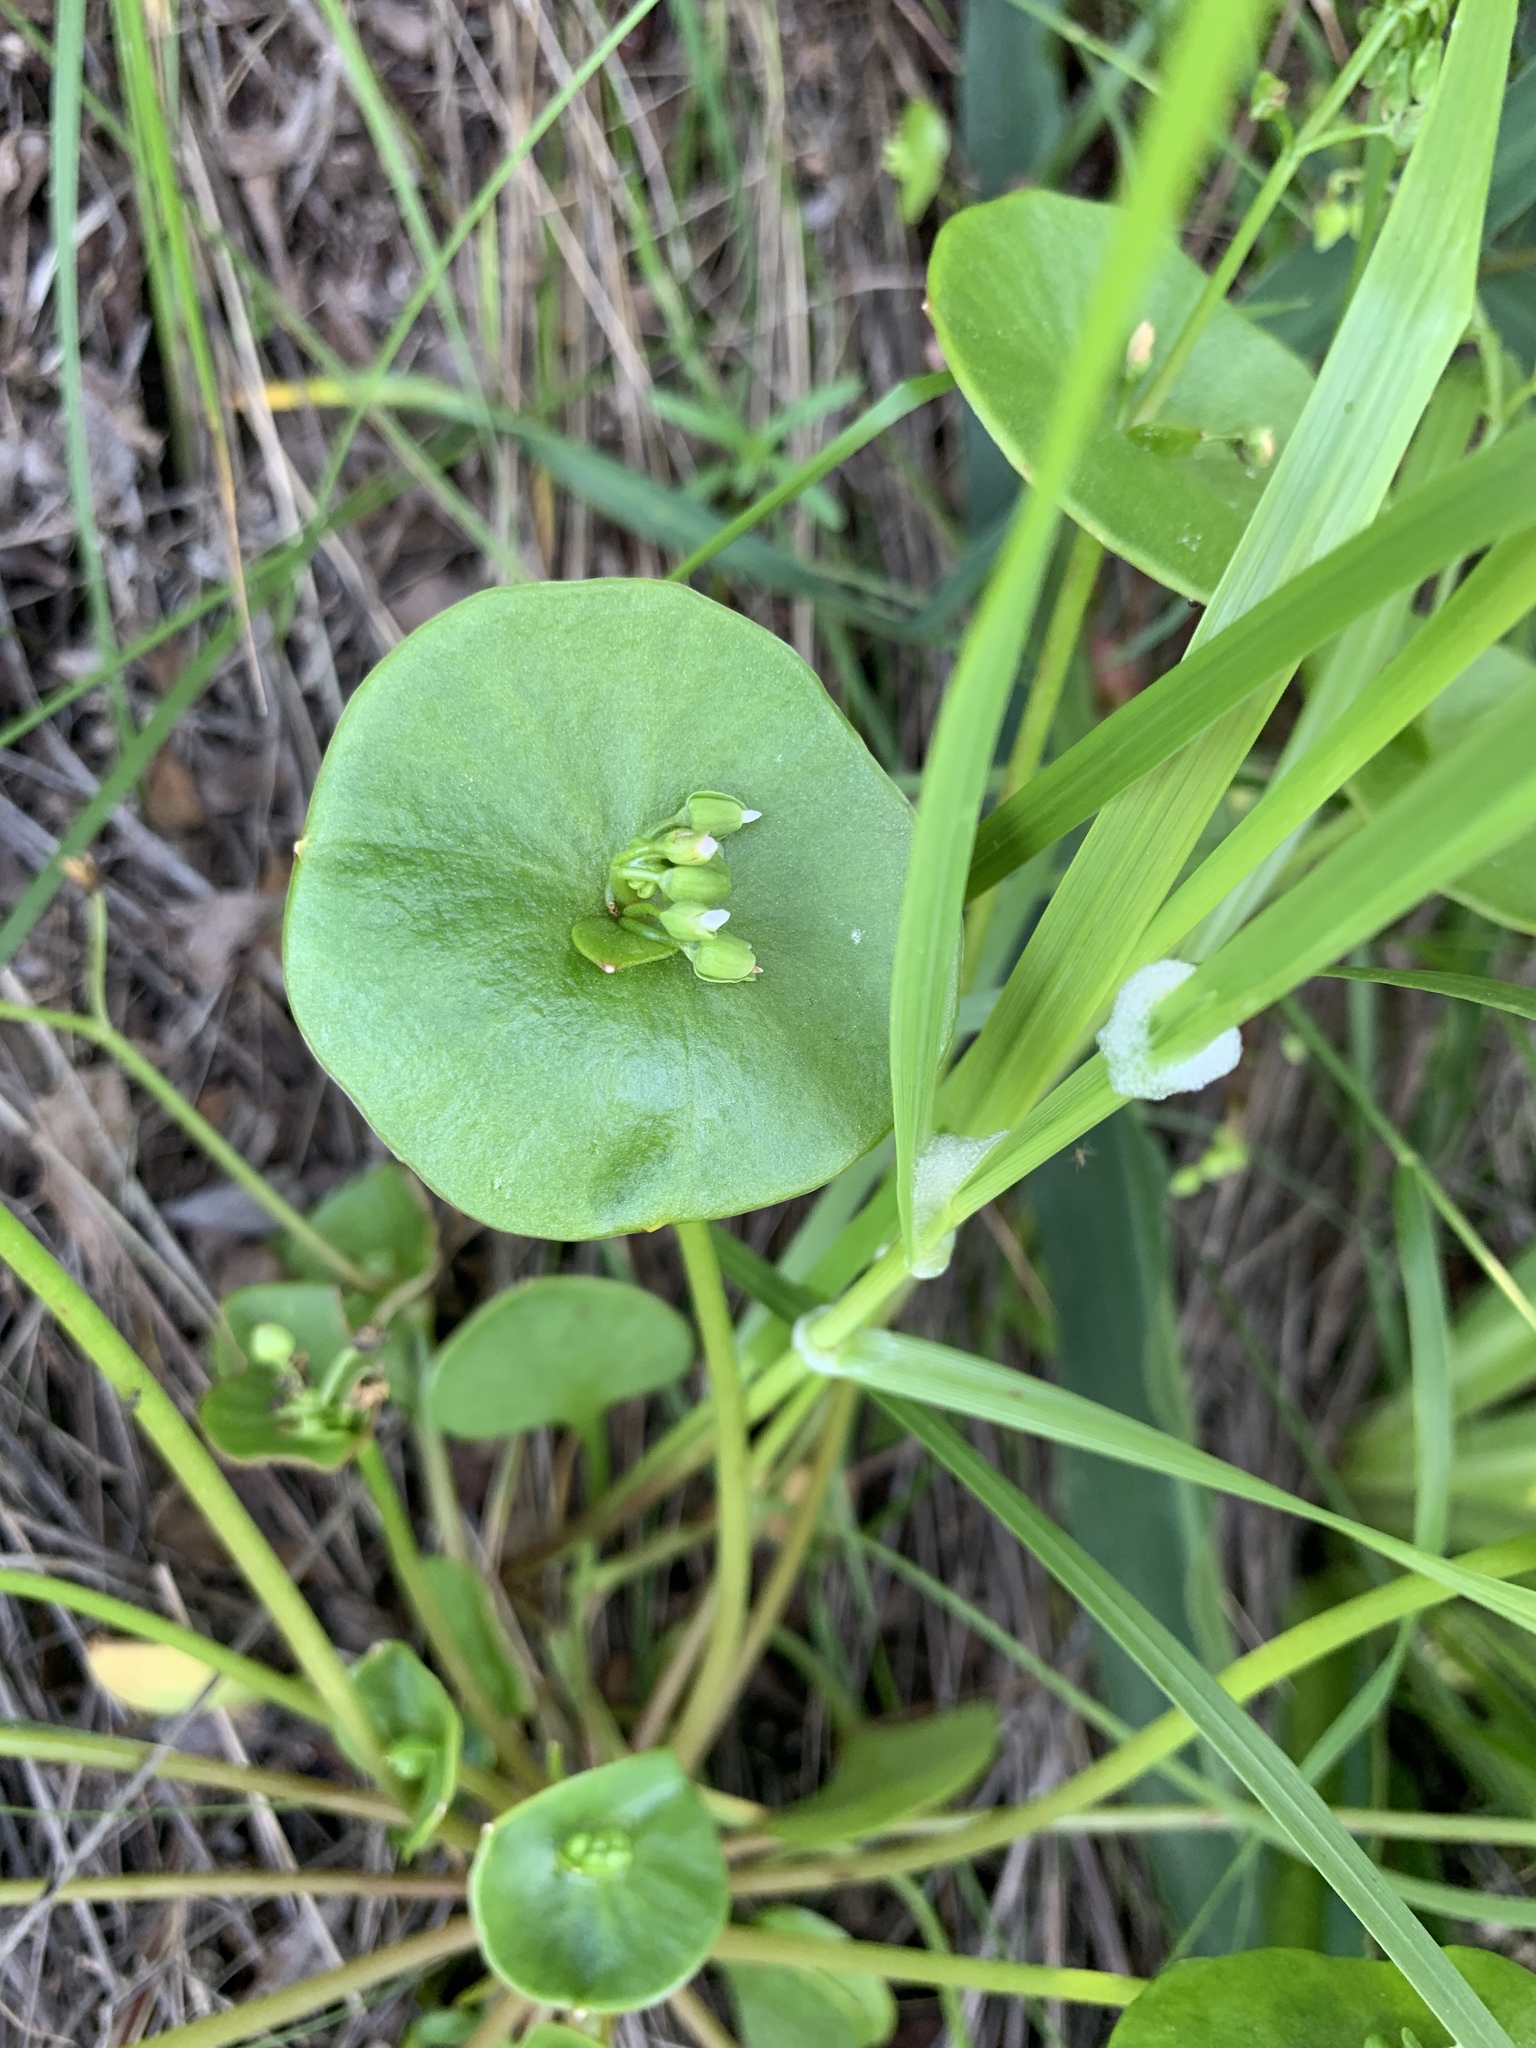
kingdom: Plantae
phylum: Tracheophyta
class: Magnoliopsida
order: Caryophyllales
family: Montiaceae
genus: Claytonia
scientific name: Claytonia perfoliata
